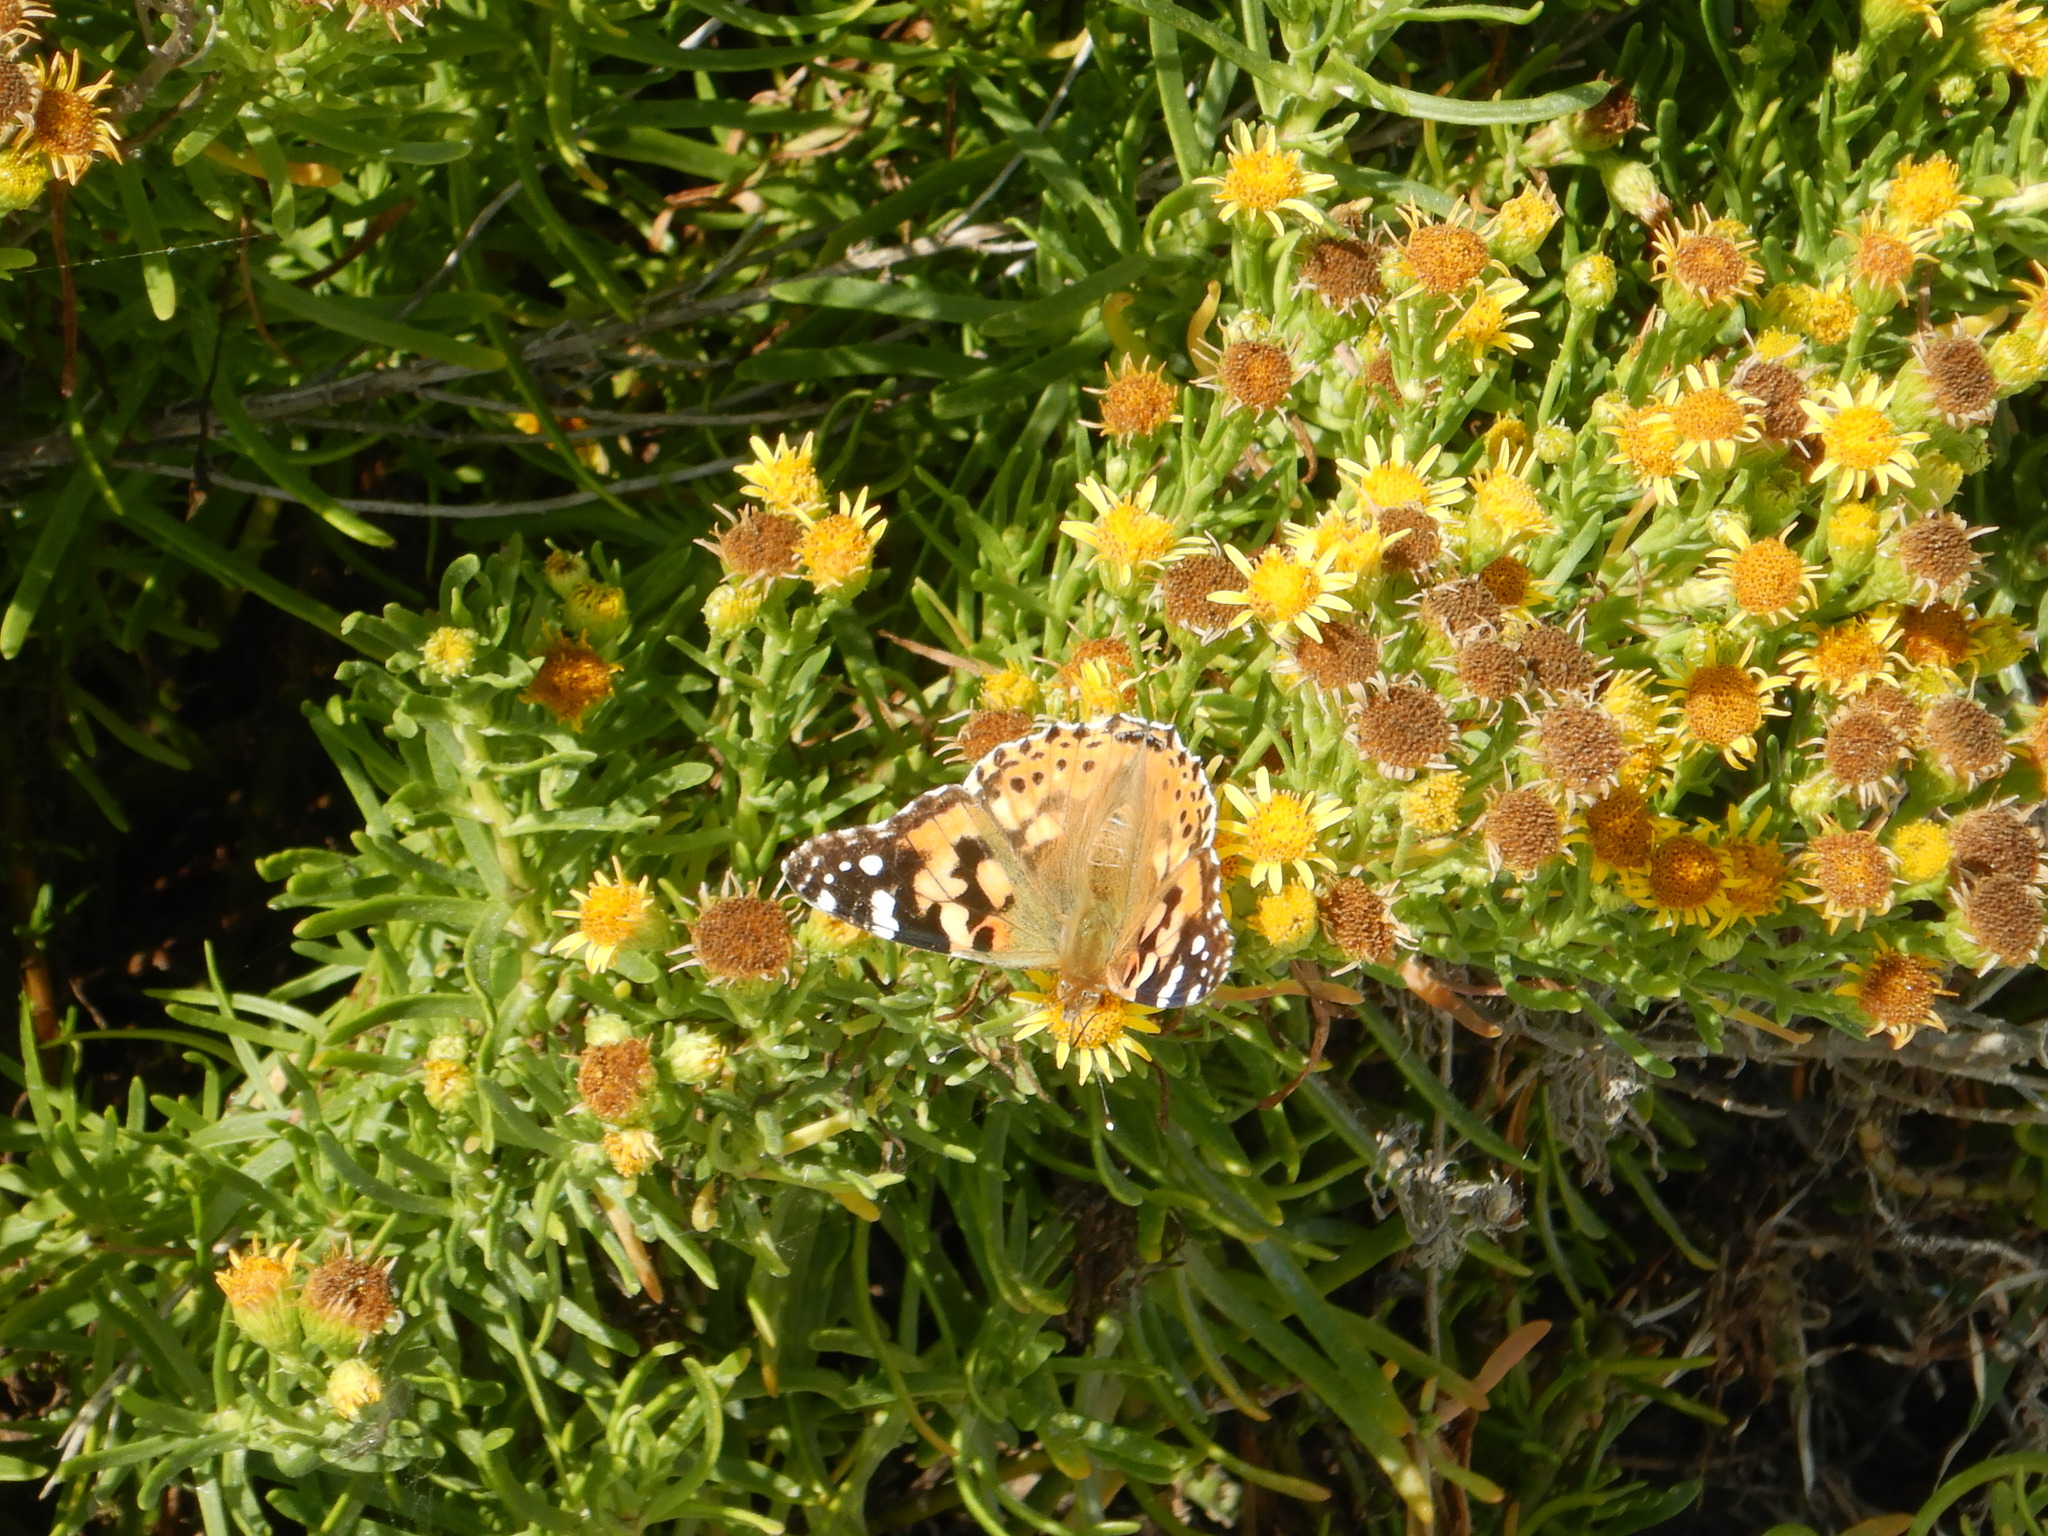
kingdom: Animalia
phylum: Arthropoda
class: Insecta
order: Lepidoptera
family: Nymphalidae
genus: Vanessa
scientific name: Vanessa cardui
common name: Painted lady
